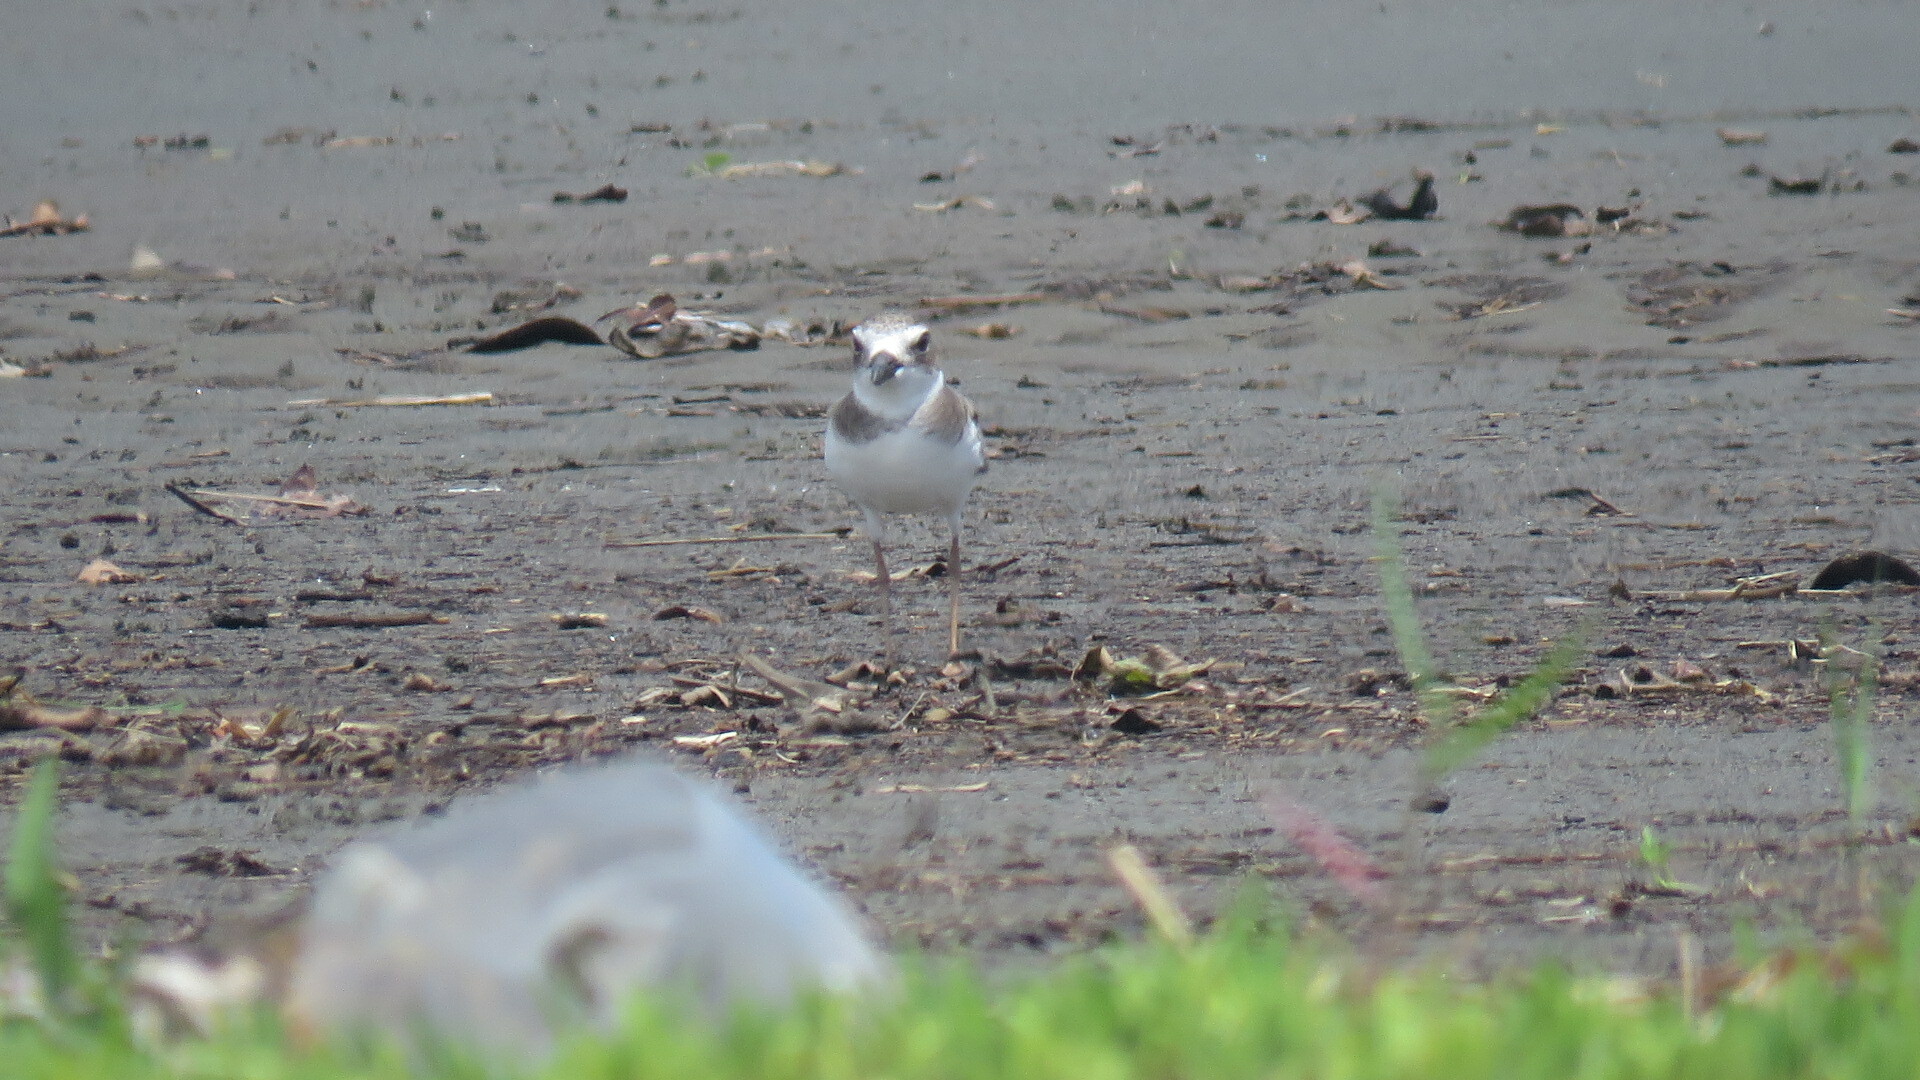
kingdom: Animalia
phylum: Chordata
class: Aves
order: Charadriiformes
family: Charadriidae
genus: Anarhynchus
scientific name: Anarhynchus
